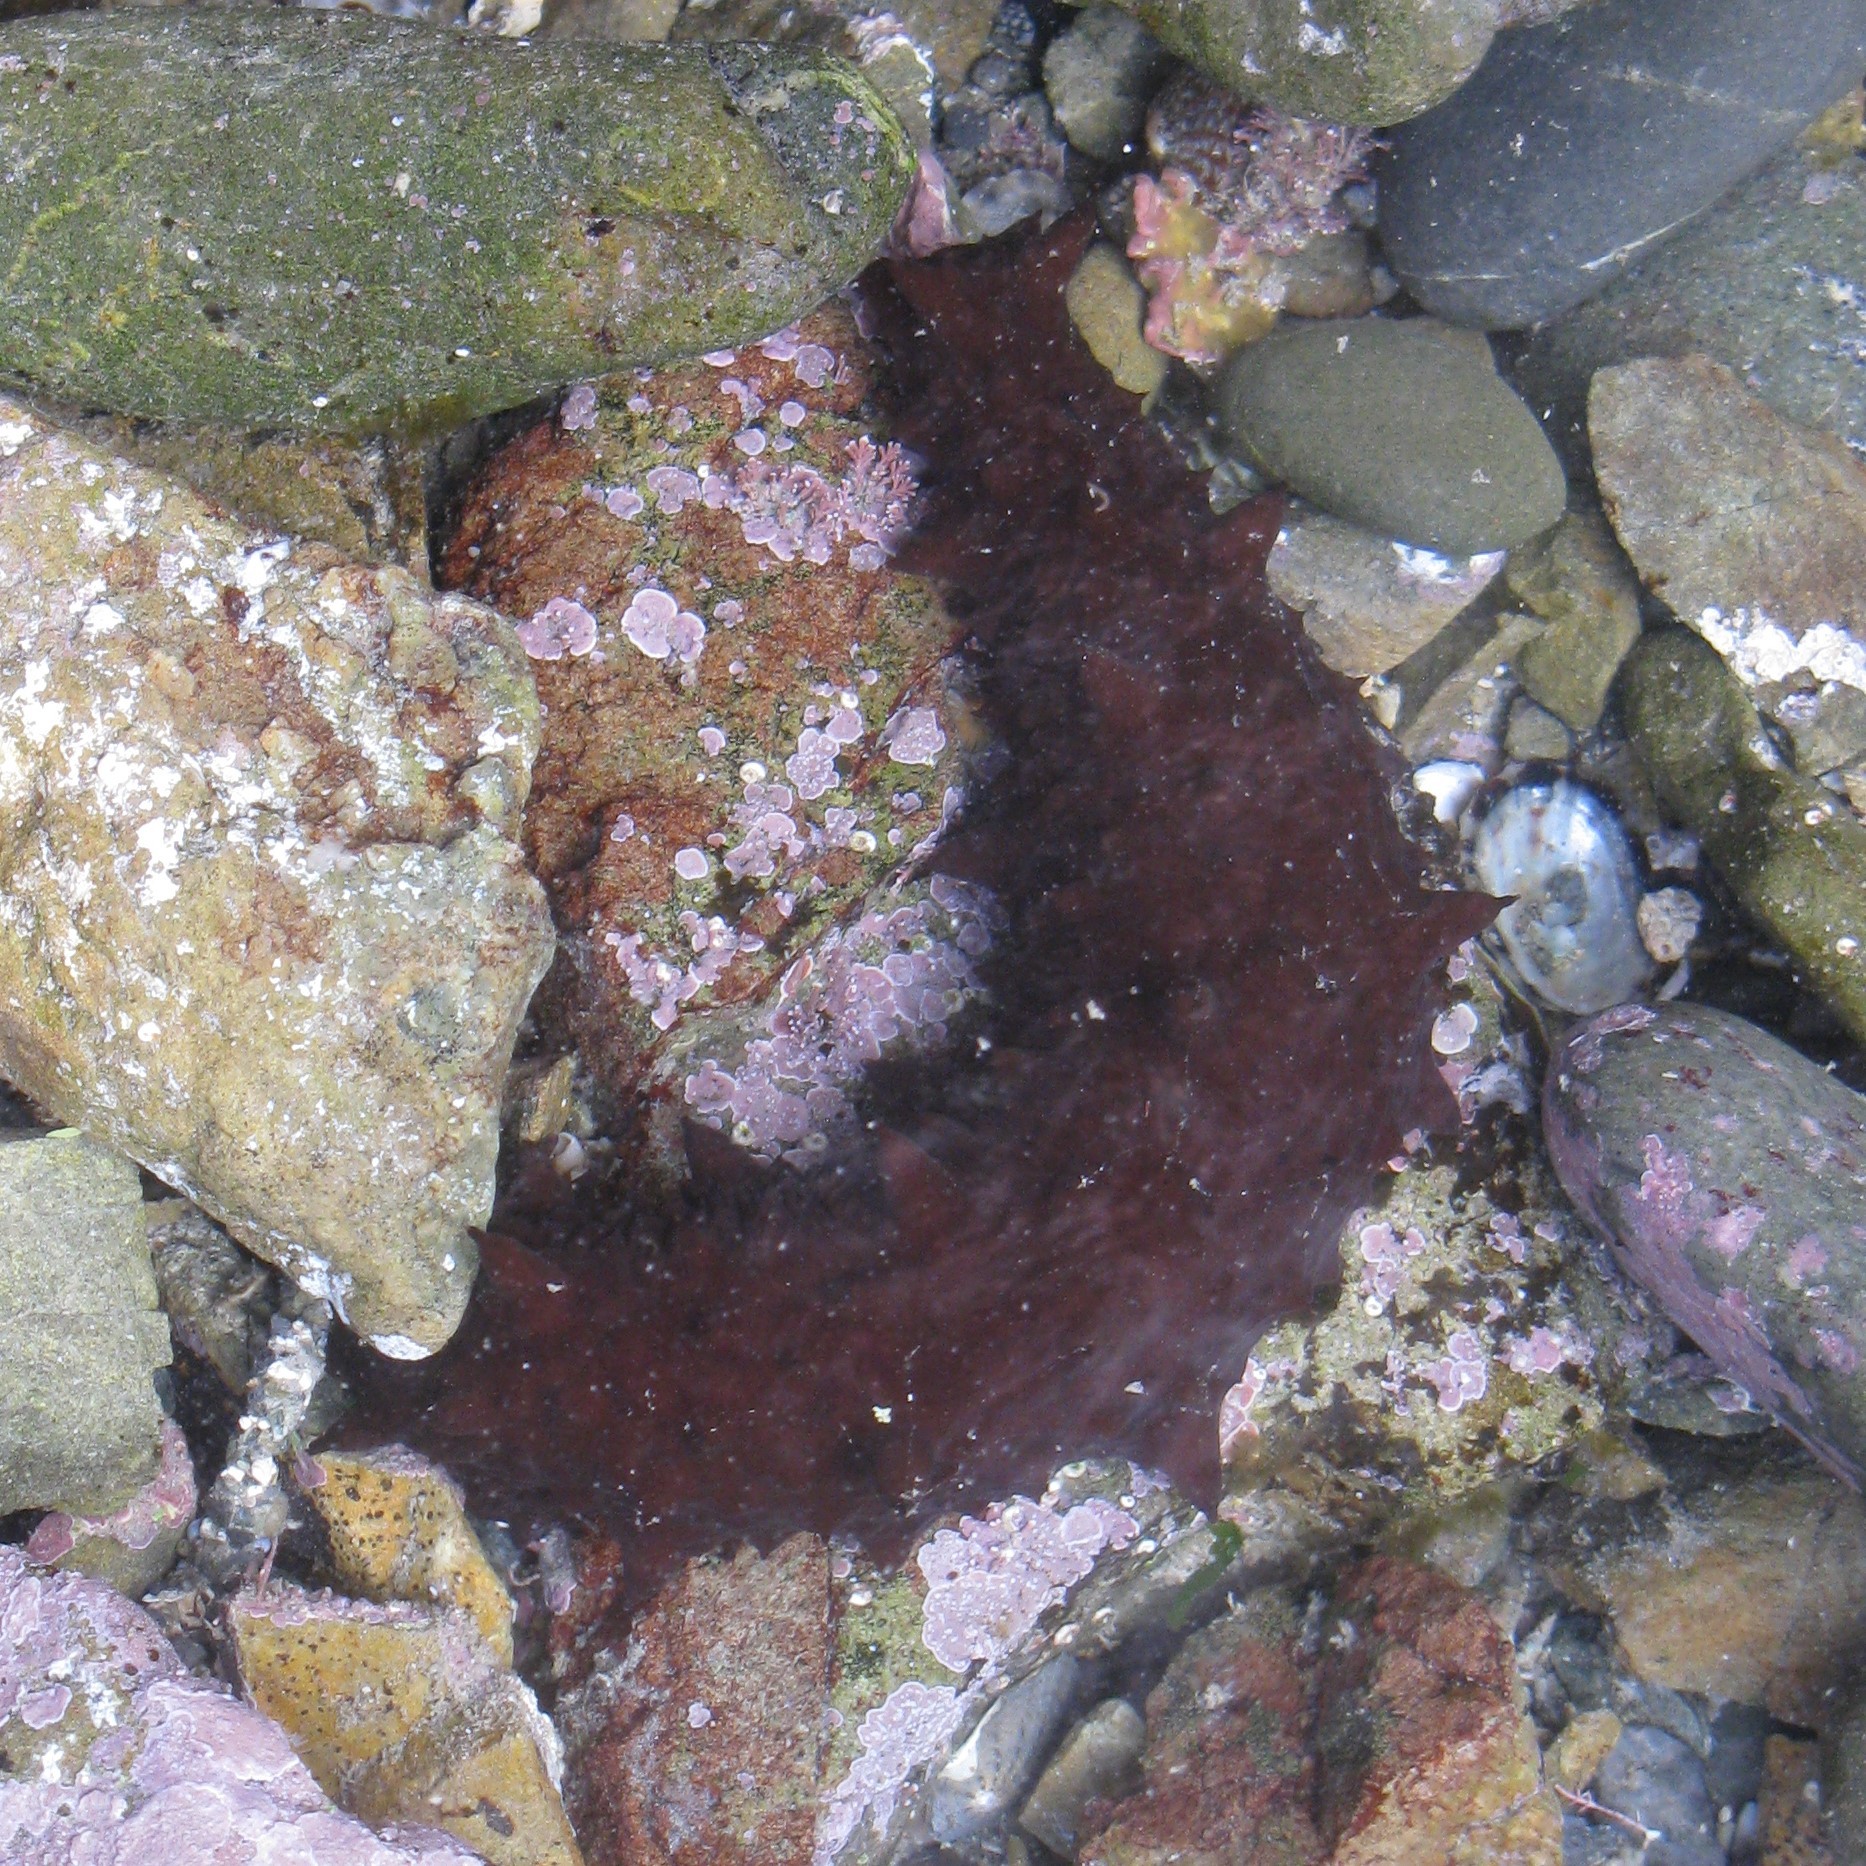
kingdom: Animalia
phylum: Echinodermata
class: Holothuroidea
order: Synallactida
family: Stichopodidae
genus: Australostichopus
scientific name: Australostichopus mollis
